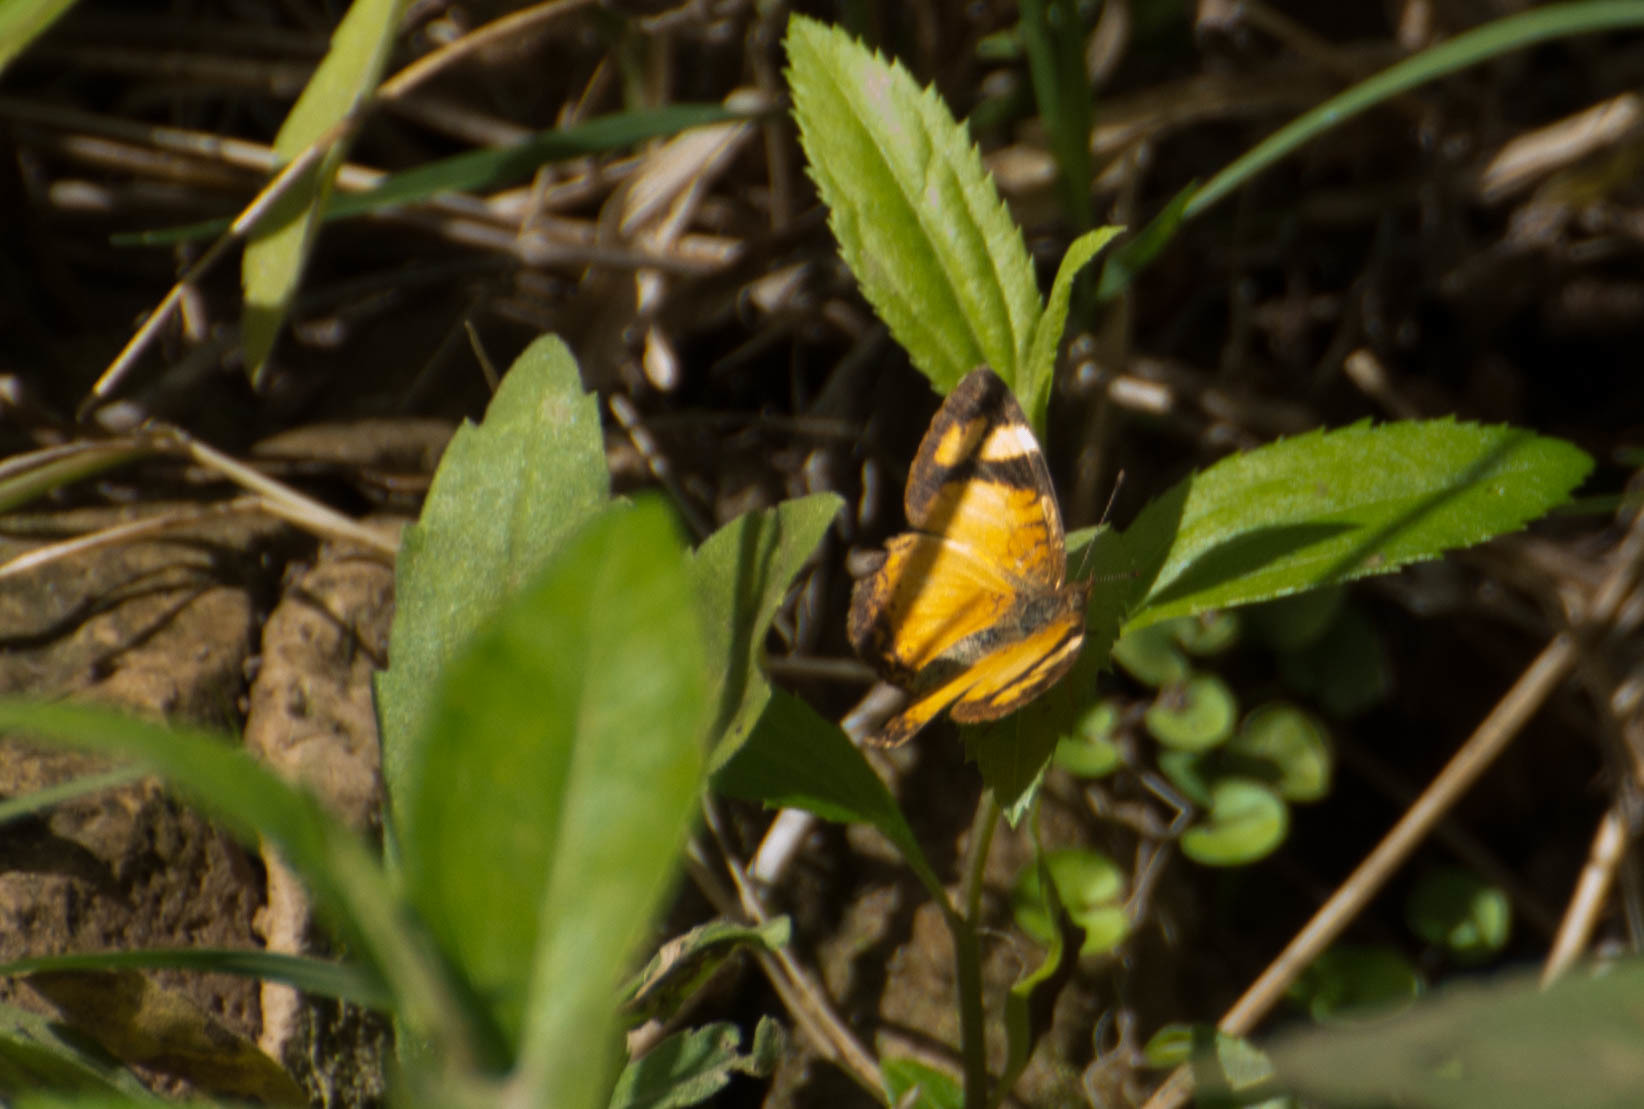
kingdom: Animalia
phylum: Arthropoda
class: Insecta
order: Lepidoptera
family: Nymphalidae
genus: Tegosa
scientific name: Tegosa claudina
